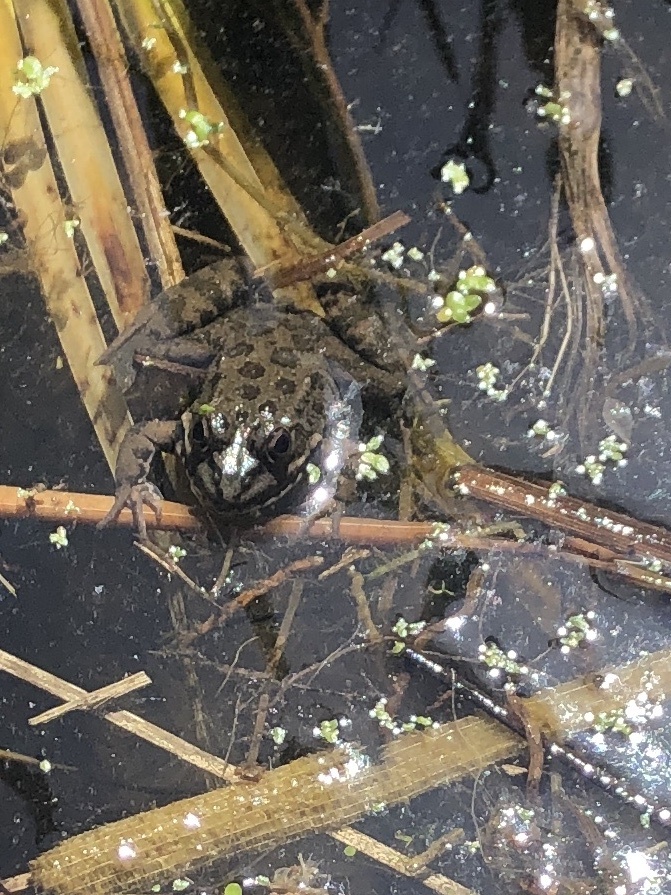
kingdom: Animalia
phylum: Chordata
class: Amphibia
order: Anura
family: Ranidae
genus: Pelophylax
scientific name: Pelophylax perezi
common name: Perez's frog
